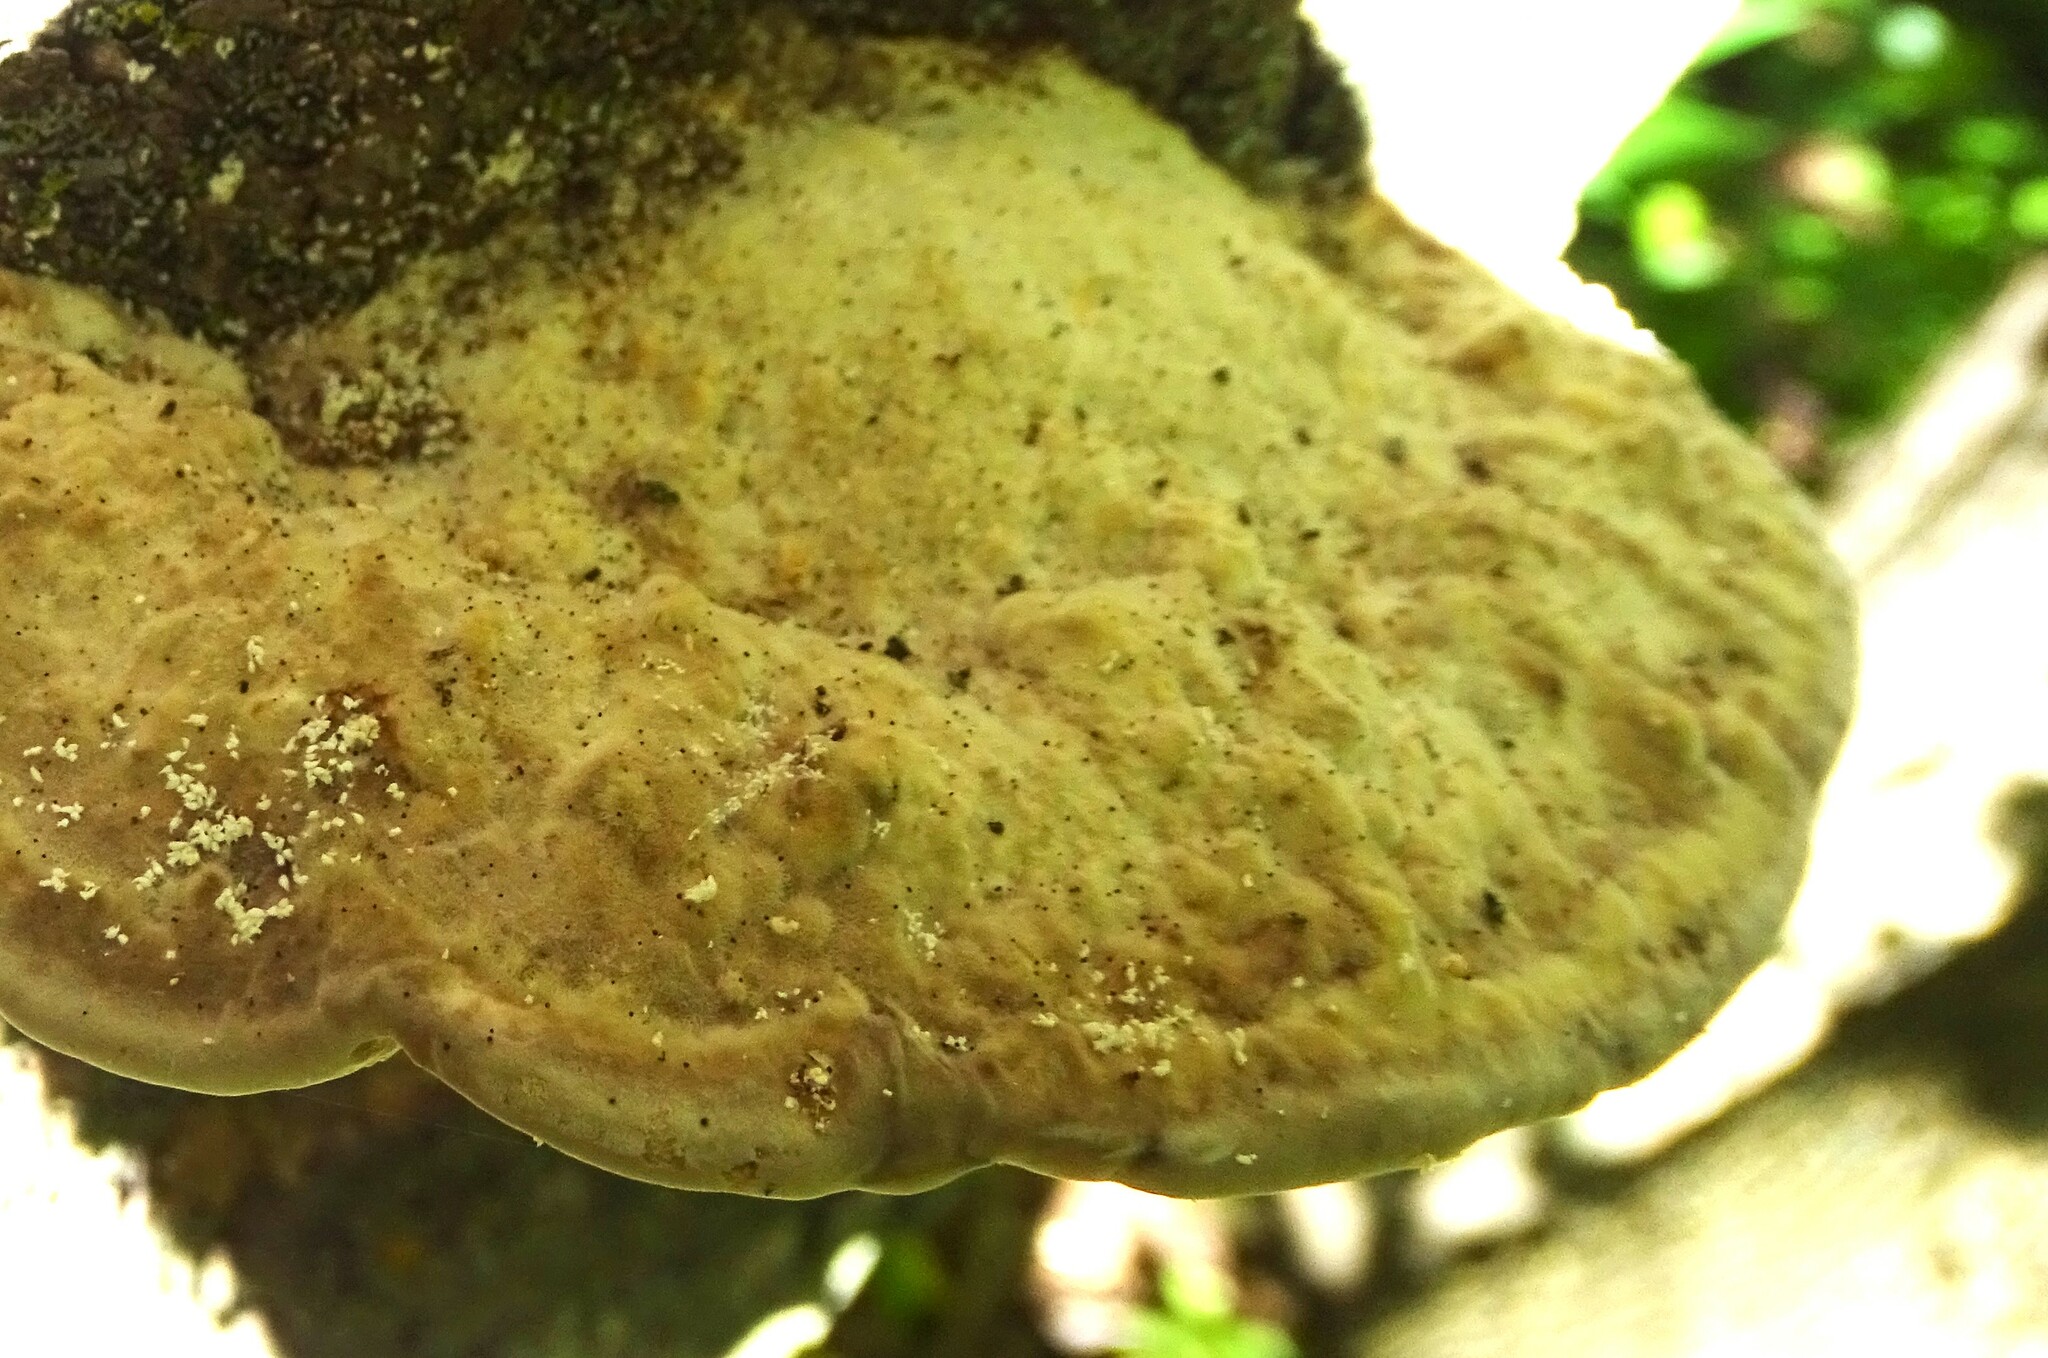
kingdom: Fungi
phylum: Basidiomycota
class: Agaricomycetes
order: Polyporales
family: Polyporaceae
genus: Trametes
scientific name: Trametes gibbosa
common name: Lumpy bracket
